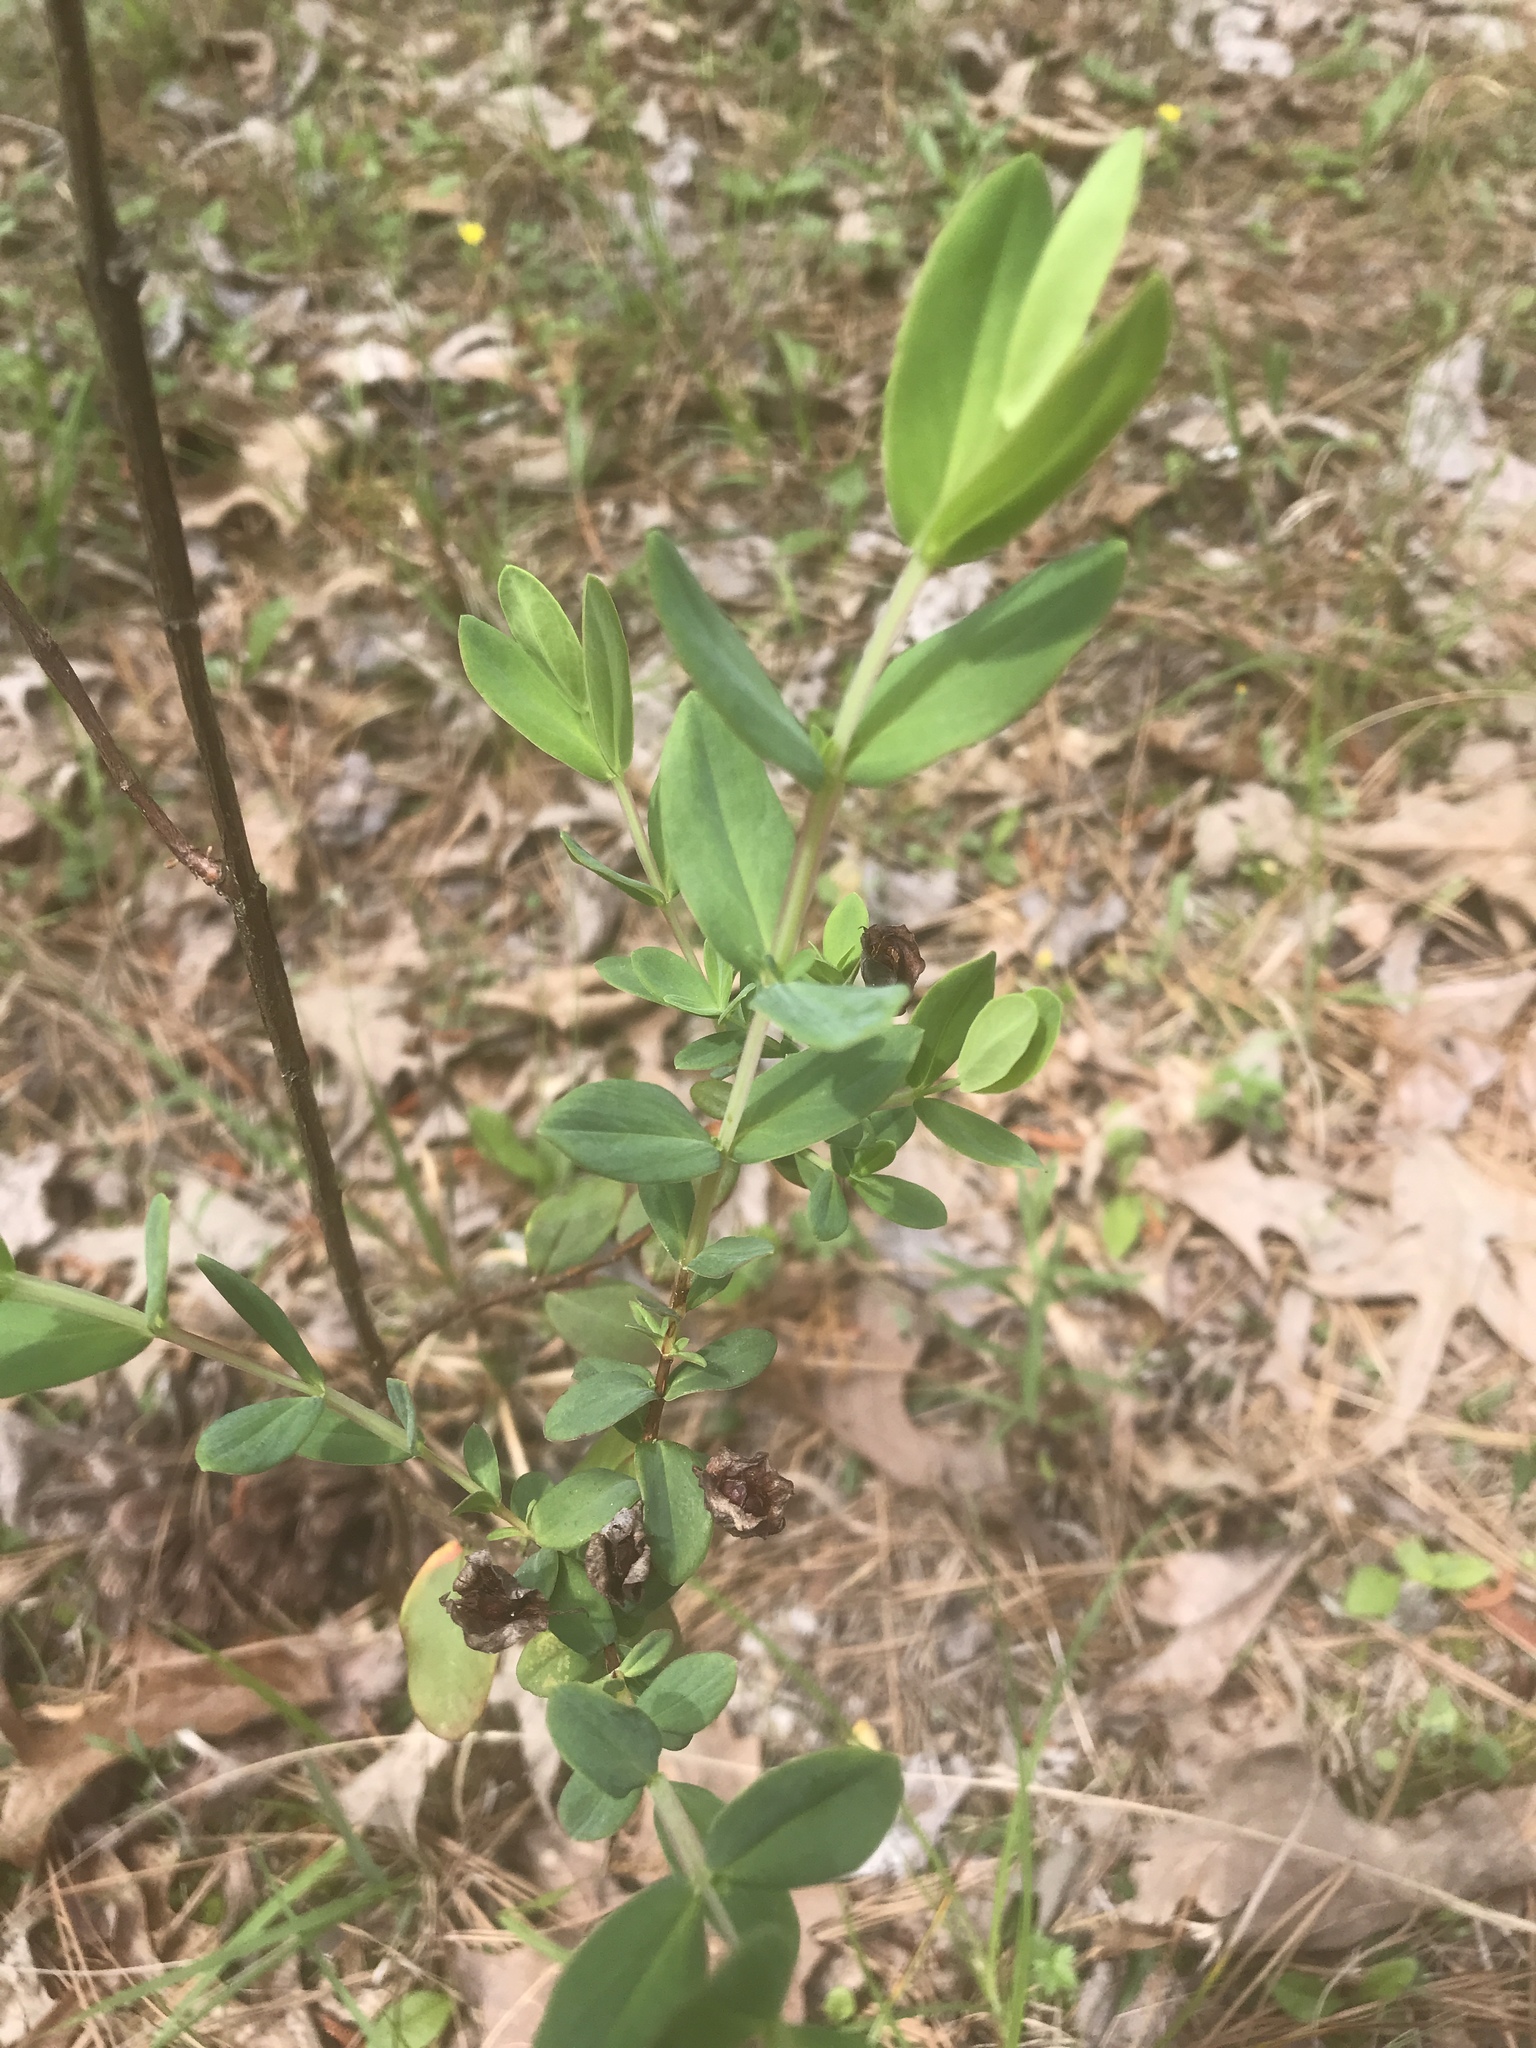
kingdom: Plantae
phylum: Tracheophyta
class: Magnoliopsida
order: Malpighiales
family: Hypericaceae
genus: Hypericum
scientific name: Hypericum crux-andreae
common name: St.-peter's-wort
